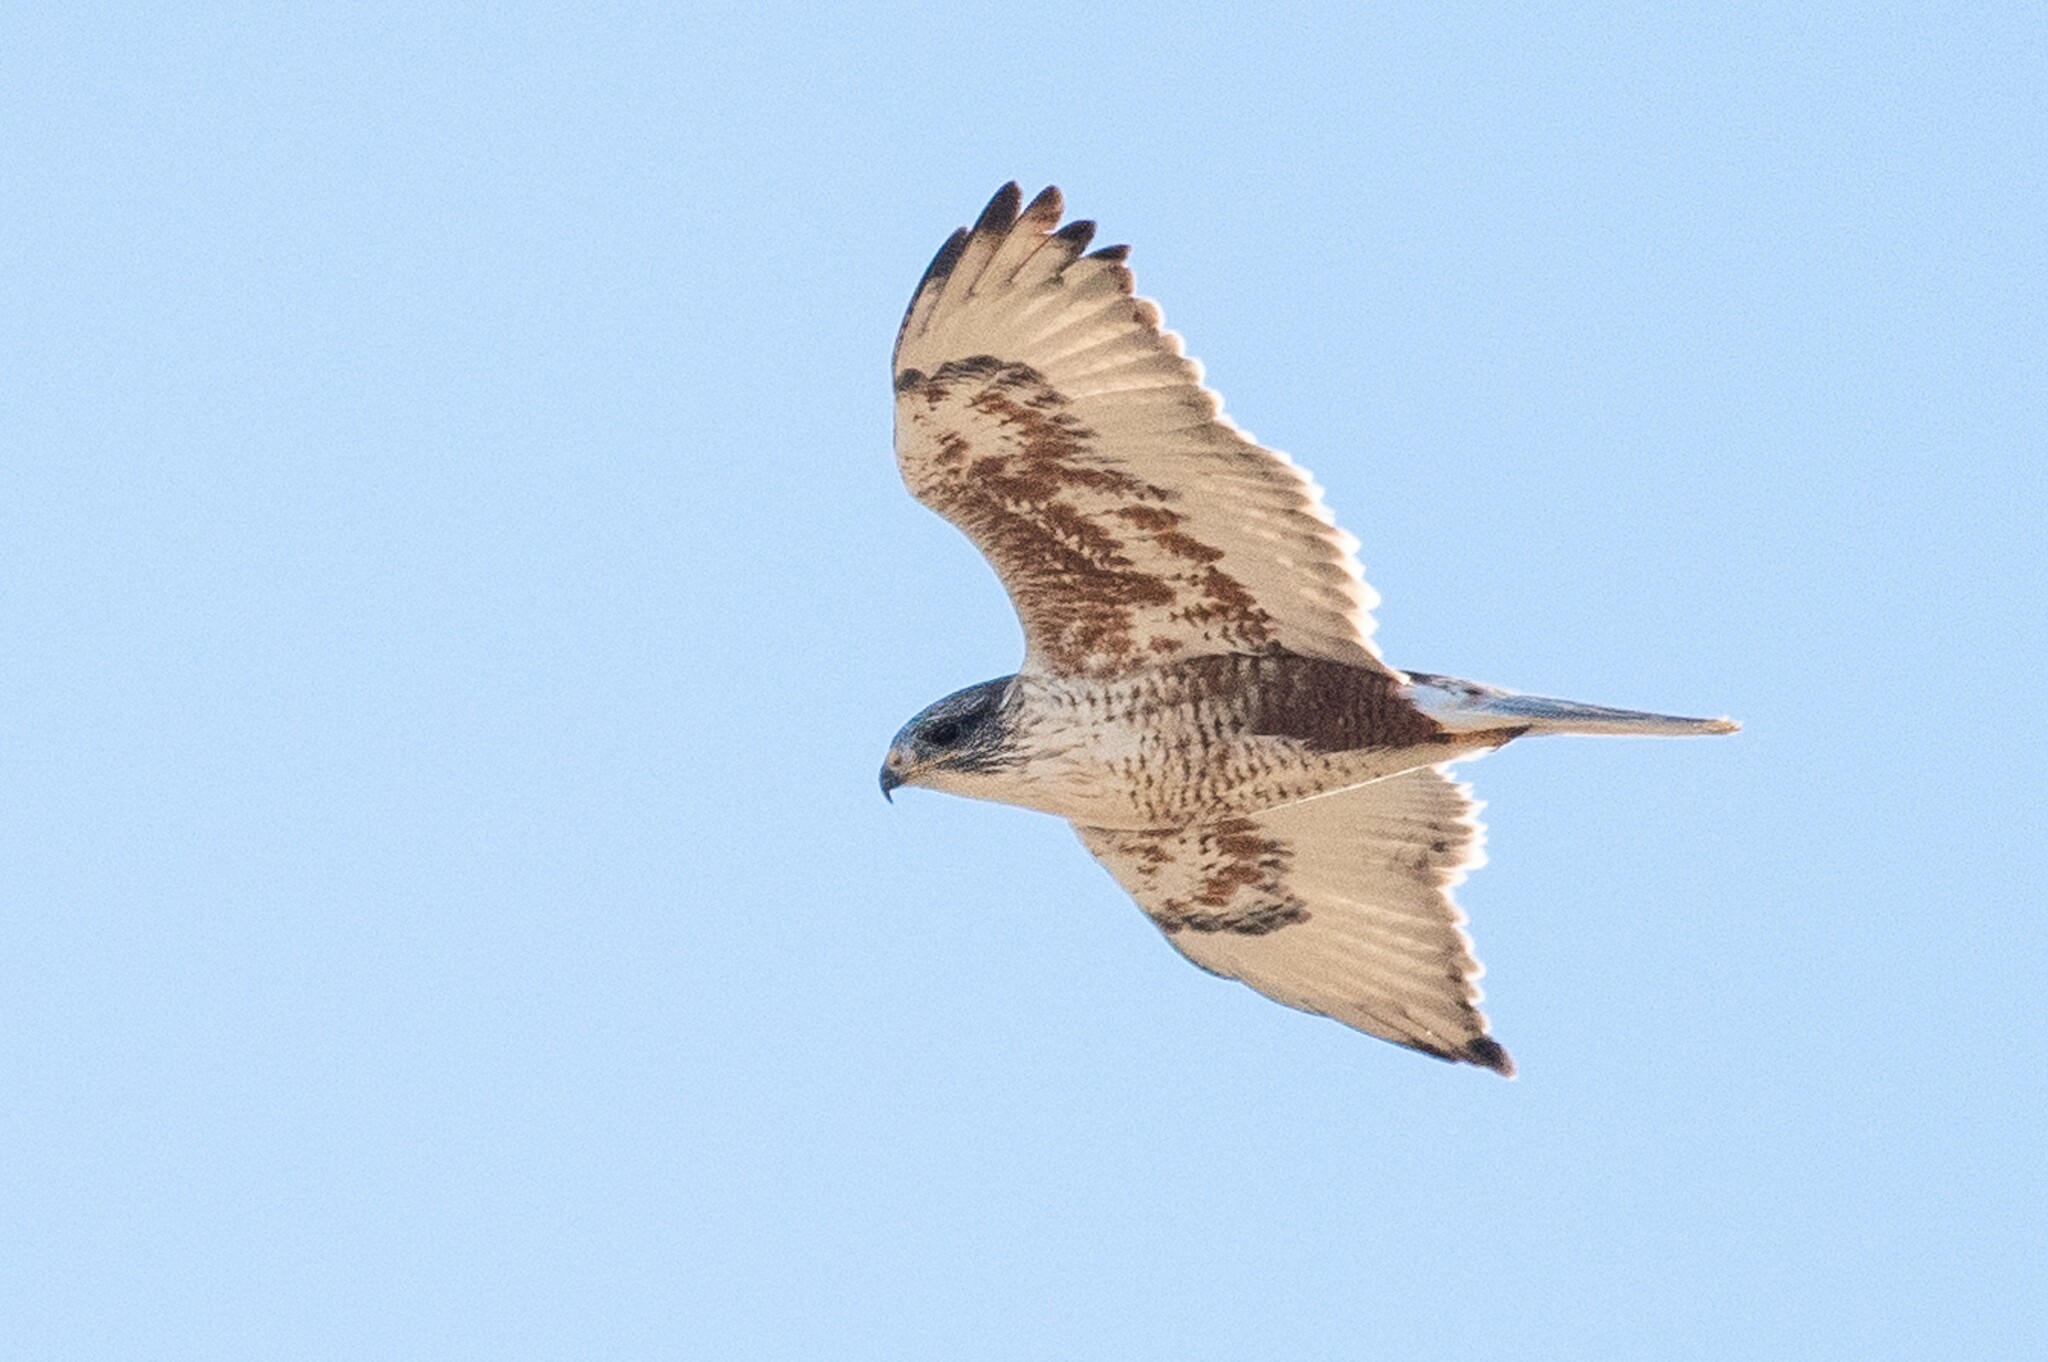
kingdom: Animalia
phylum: Chordata
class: Aves
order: Accipitriformes
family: Accipitridae
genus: Buteo
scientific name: Buteo regalis
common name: Ferruginous hawk
